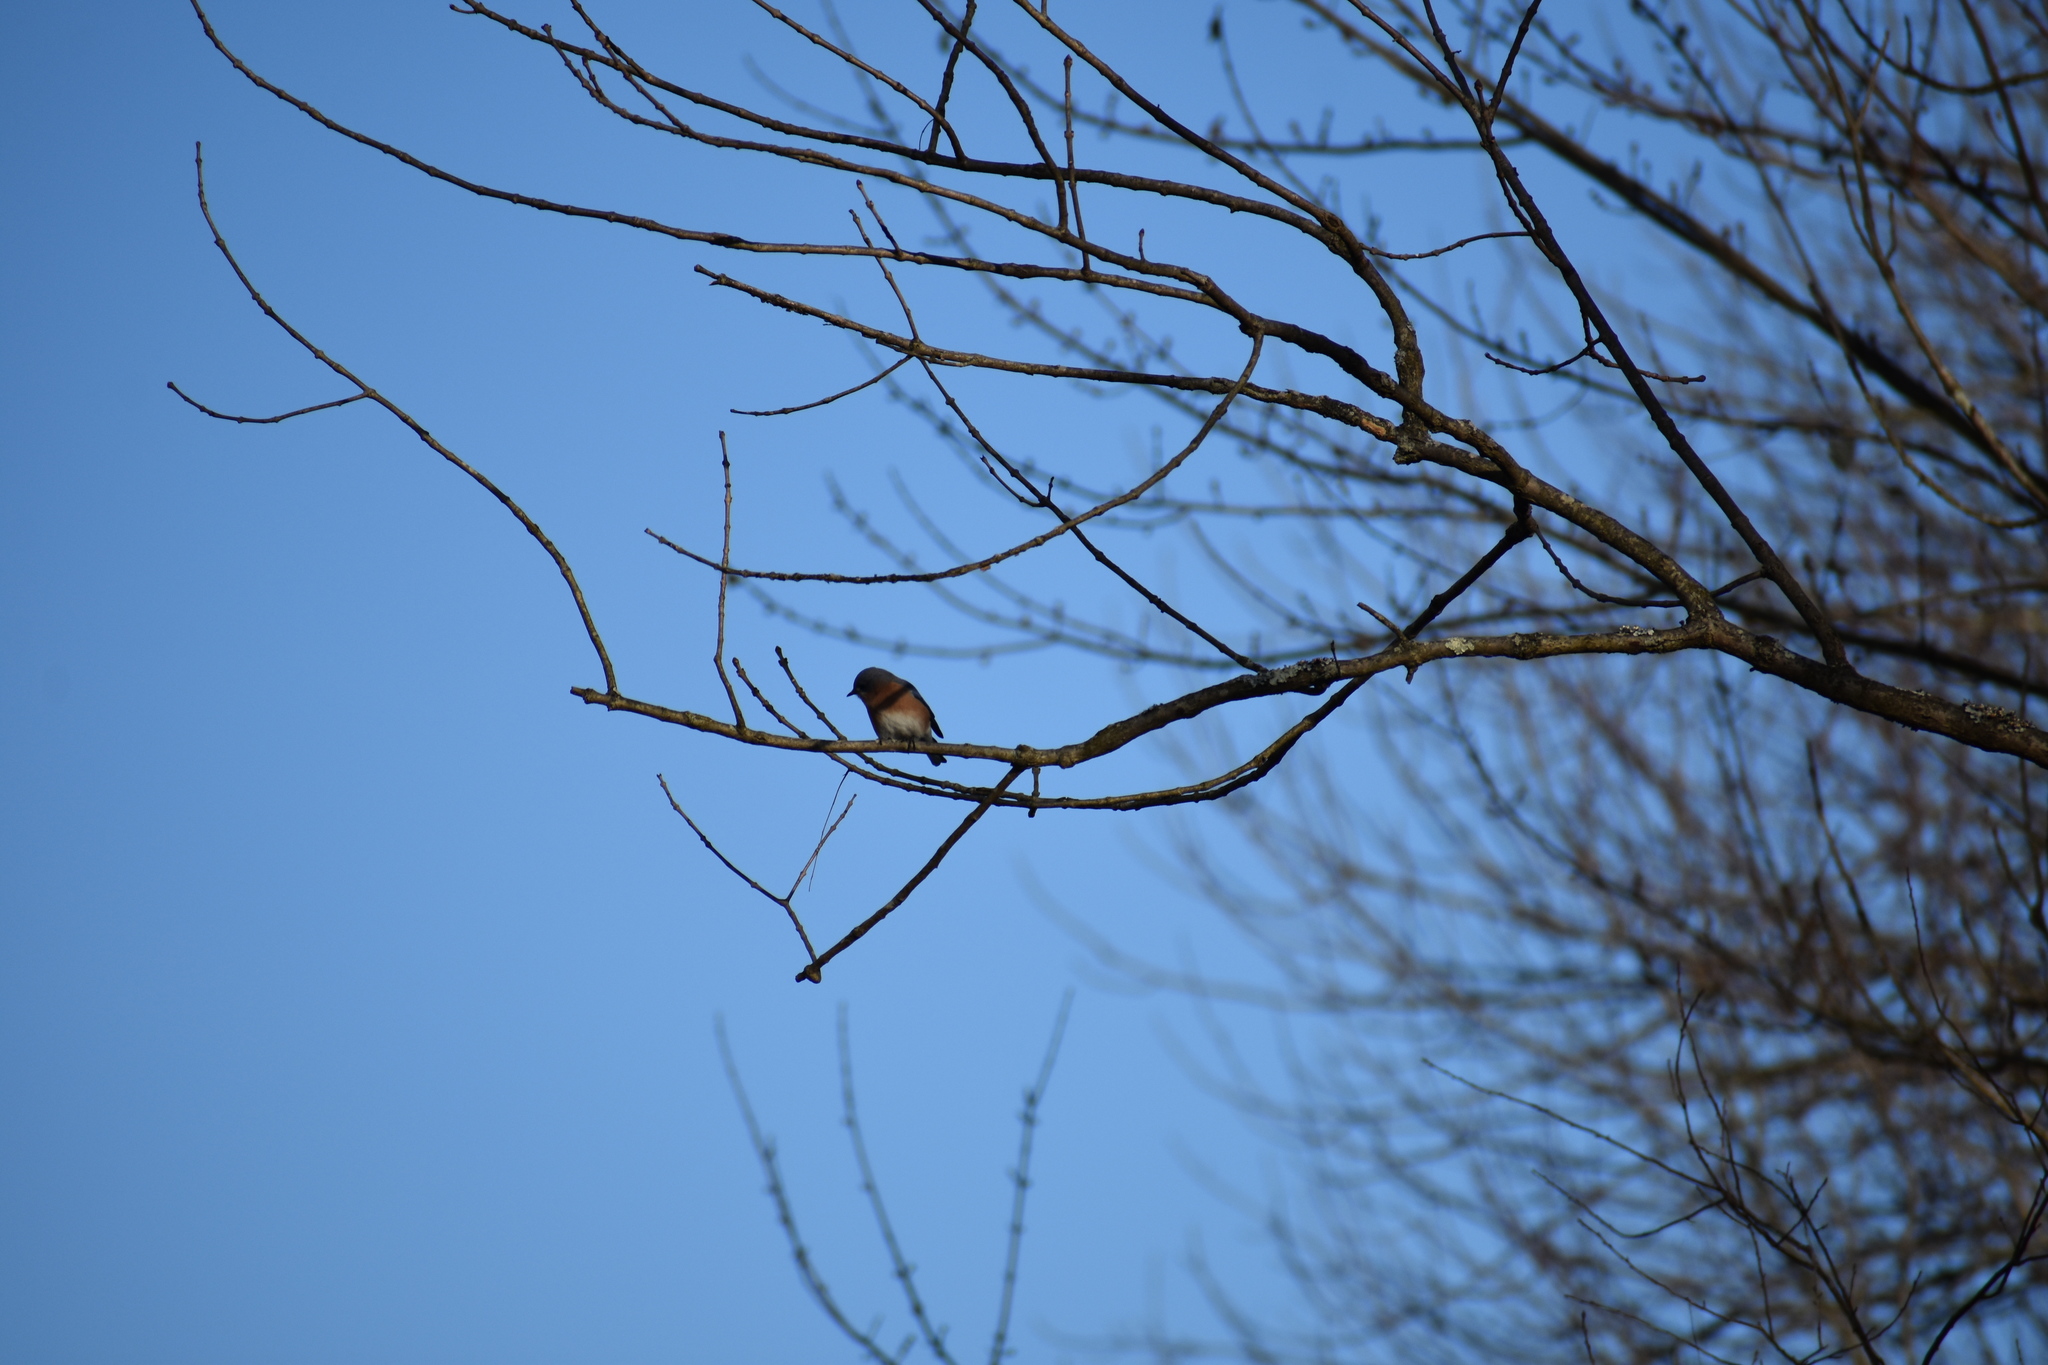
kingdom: Animalia
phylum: Chordata
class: Aves
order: Passeriformes
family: Turdidae
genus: Sialia
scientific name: Sialia sialis
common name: Eastern bluebird
